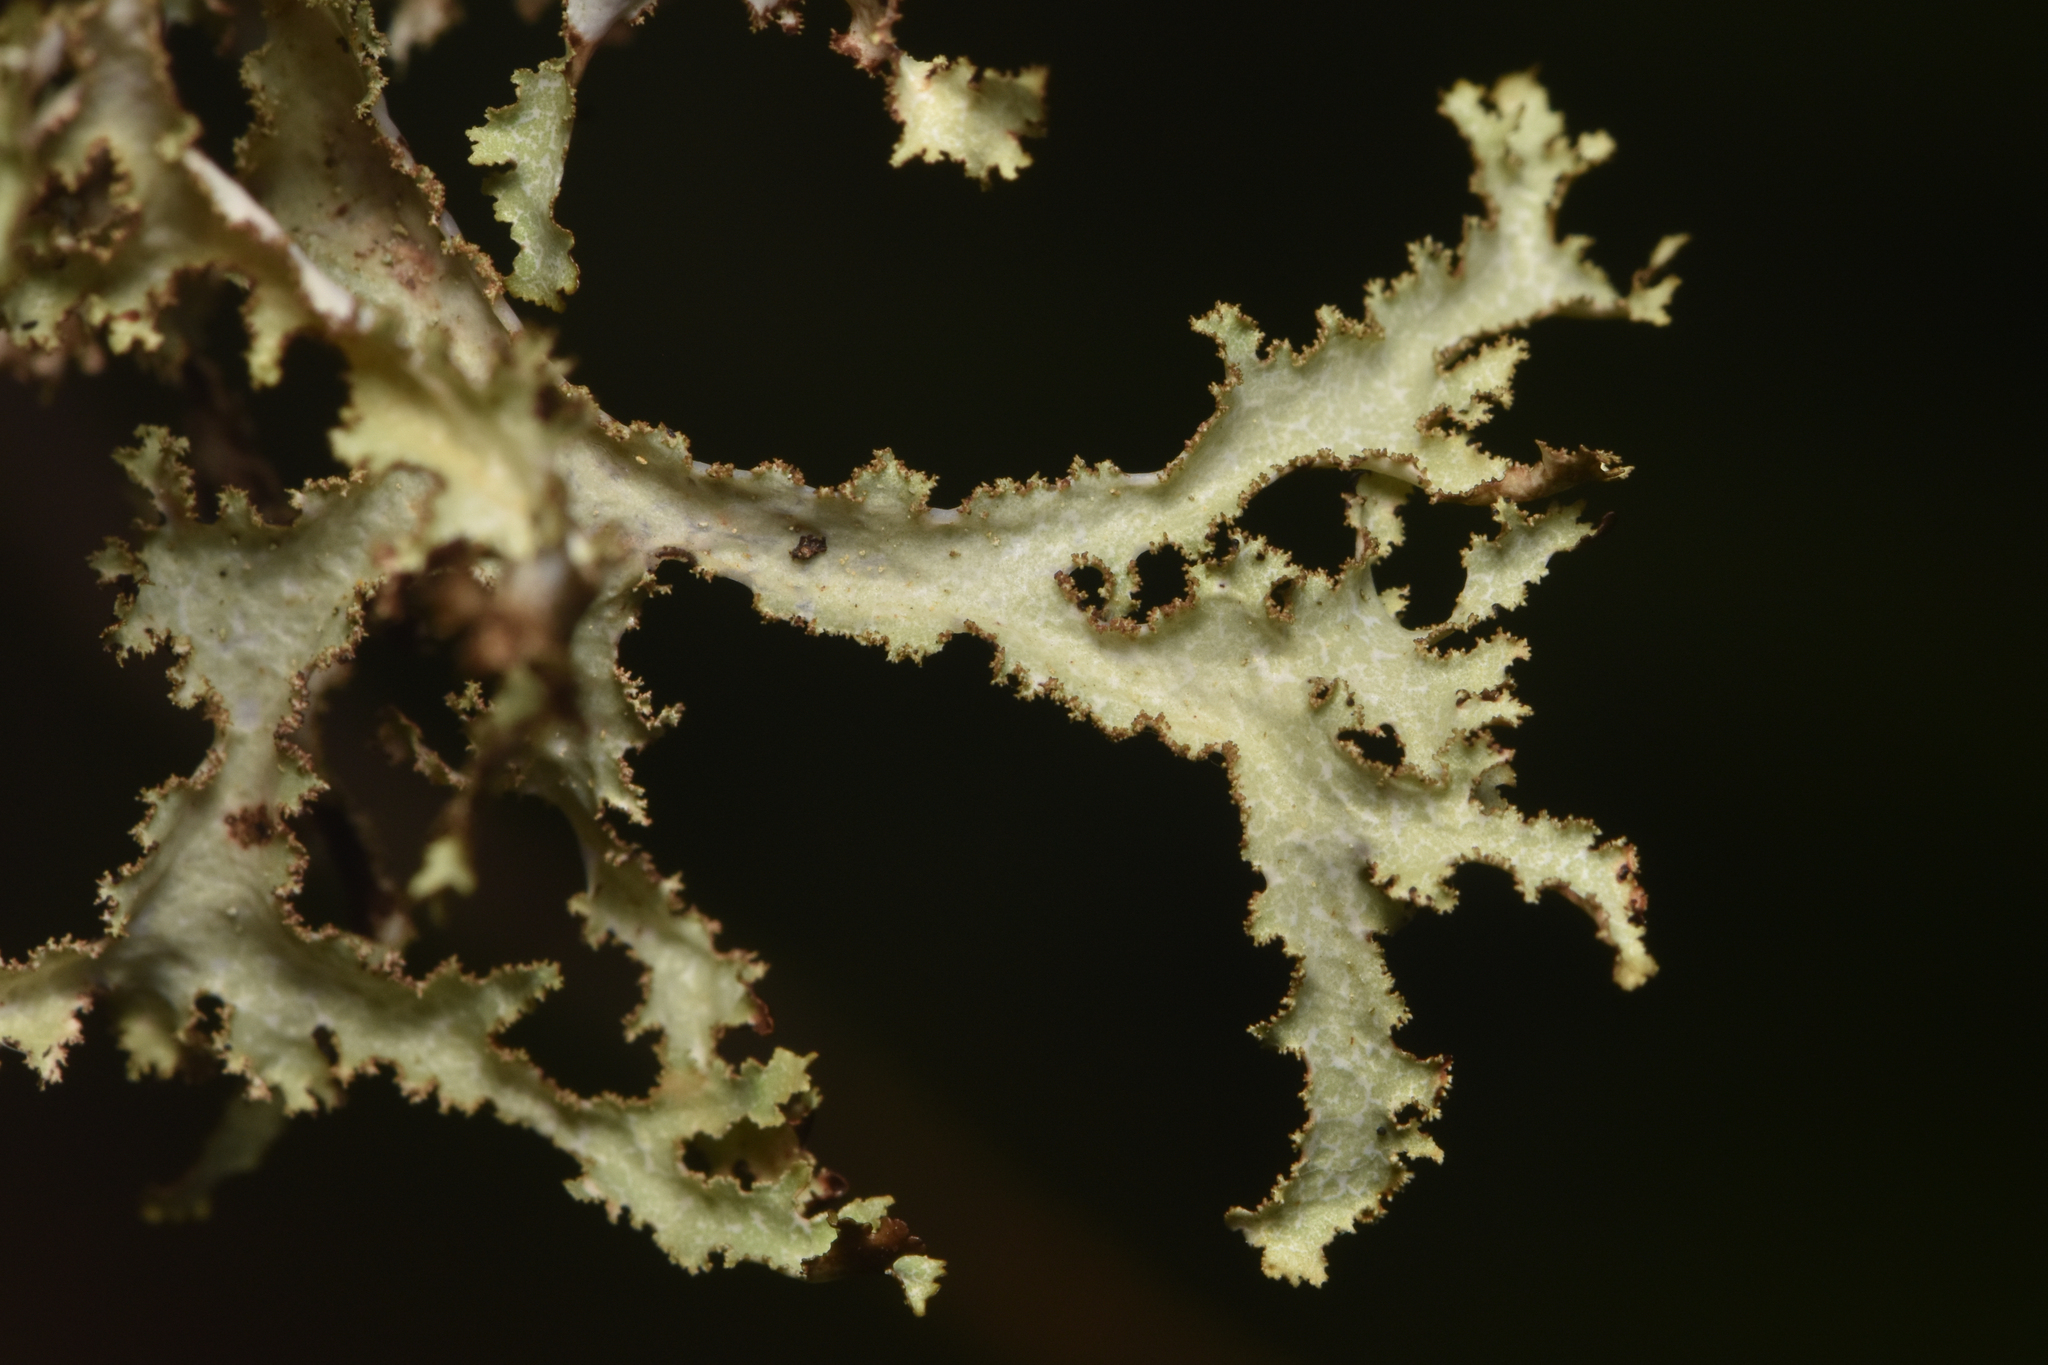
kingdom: Fungi
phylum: Ascomycota
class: Lecanoromycetes
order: Lecanorales
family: Parmeliaceae
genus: Platismatia
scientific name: Platismatia herrei
